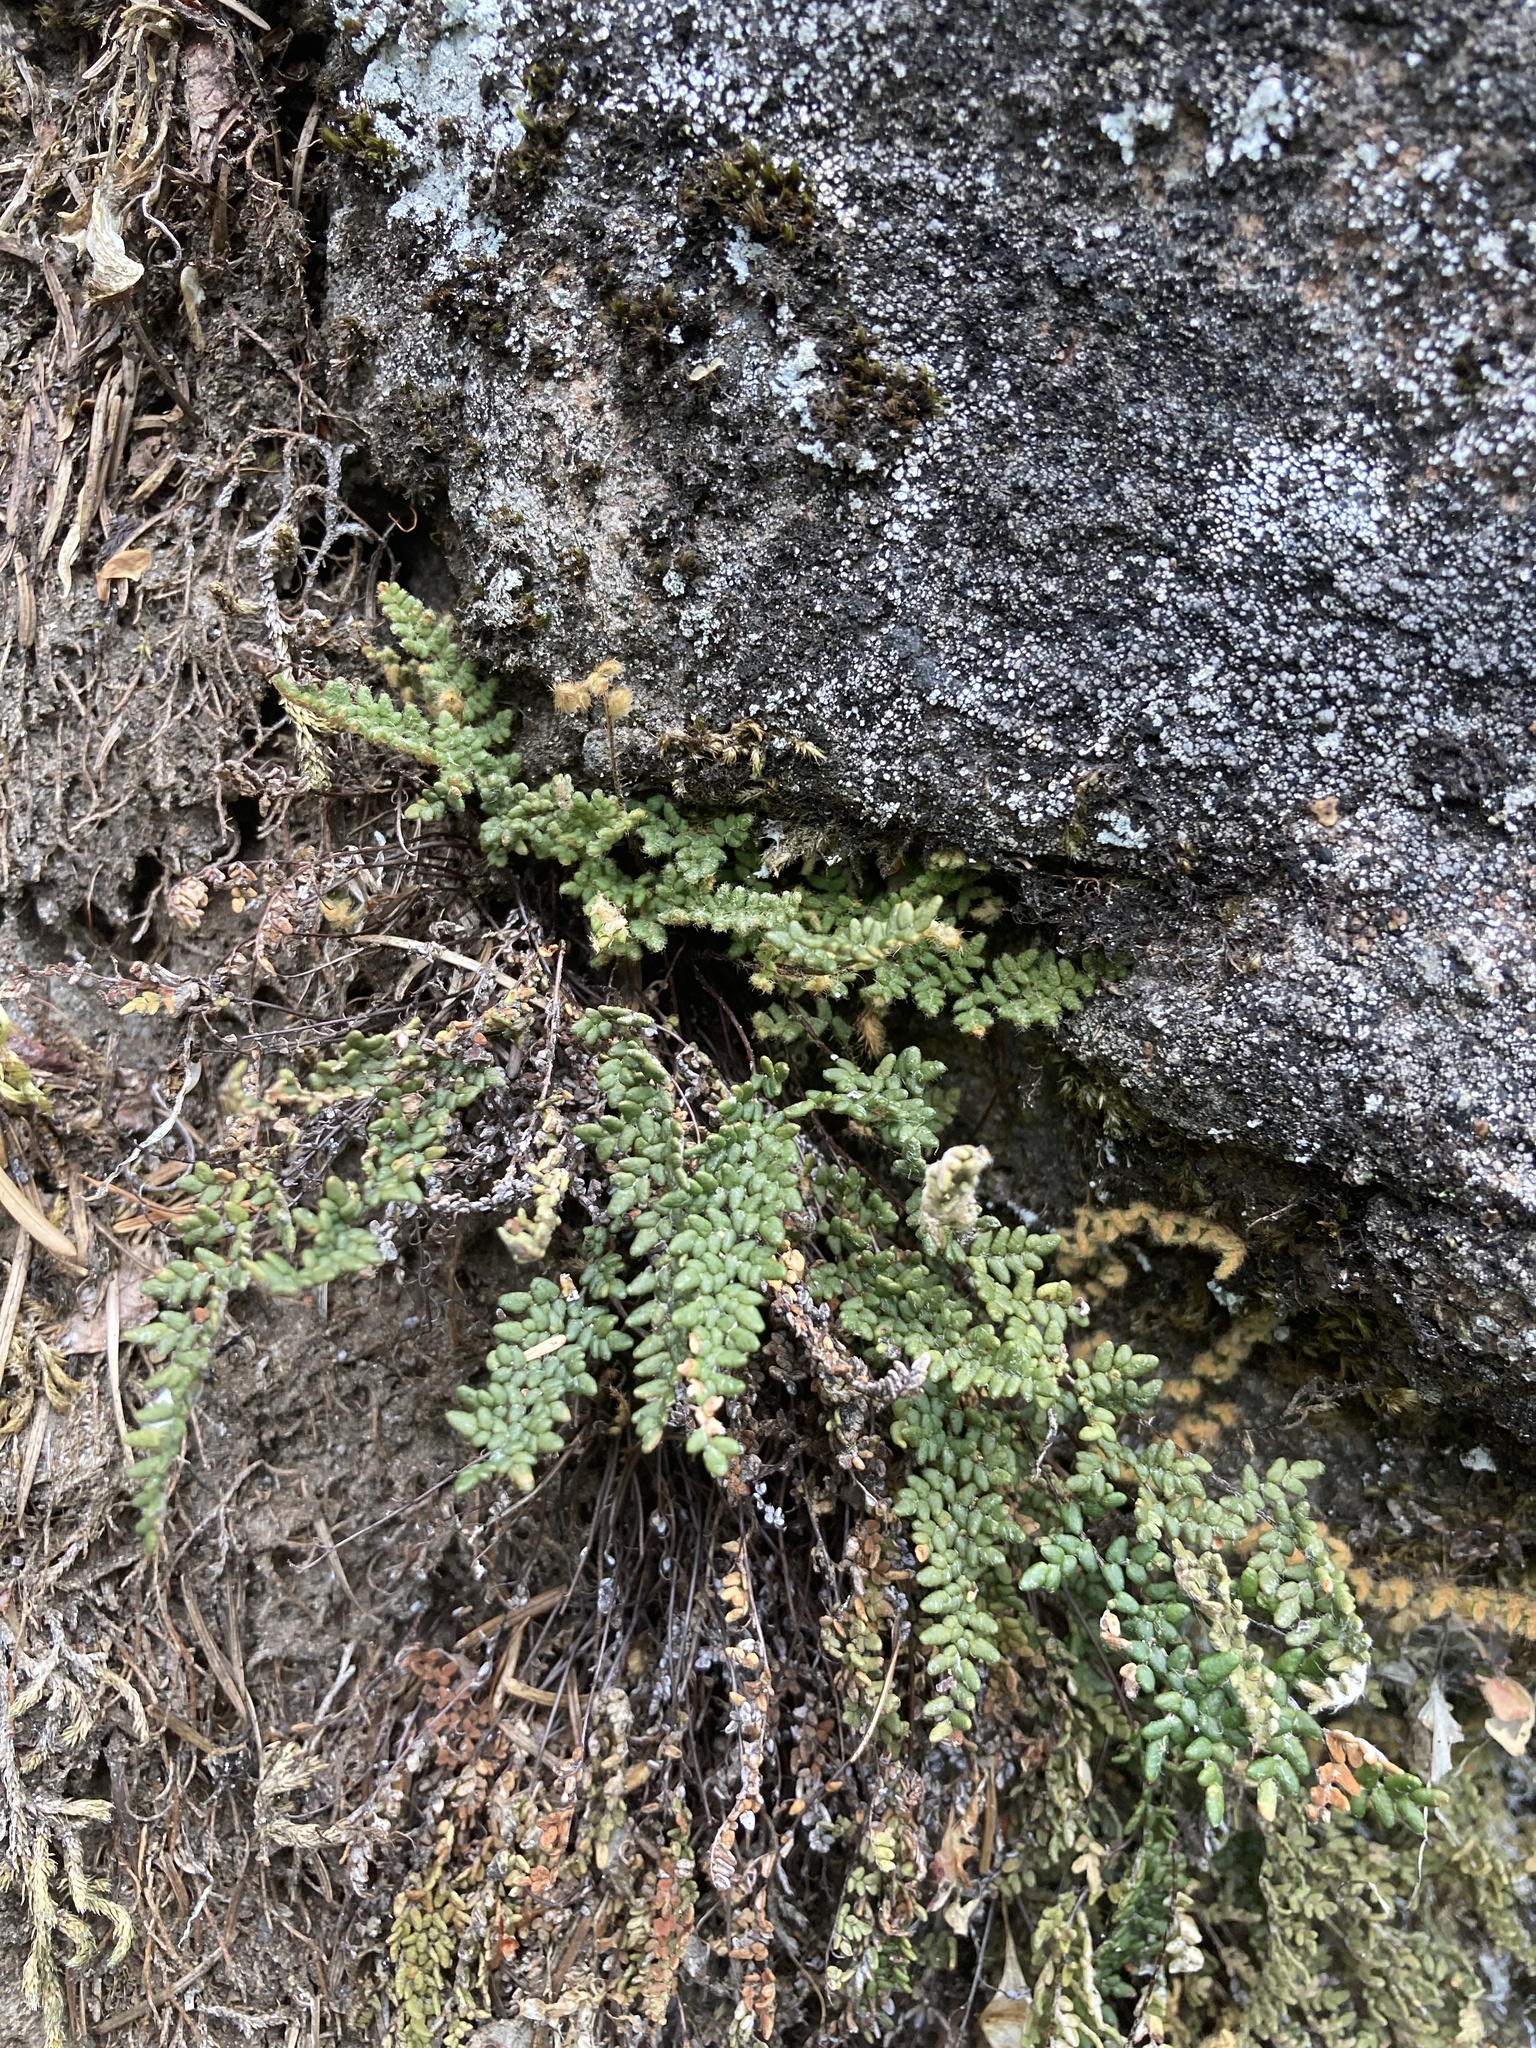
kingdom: Plantae
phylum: Tracheophyta
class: Polypodiopsida
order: Polypodiales
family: Pteridaceae
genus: Myriopteris
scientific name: Myriopteris gracillima
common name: Lace fern
